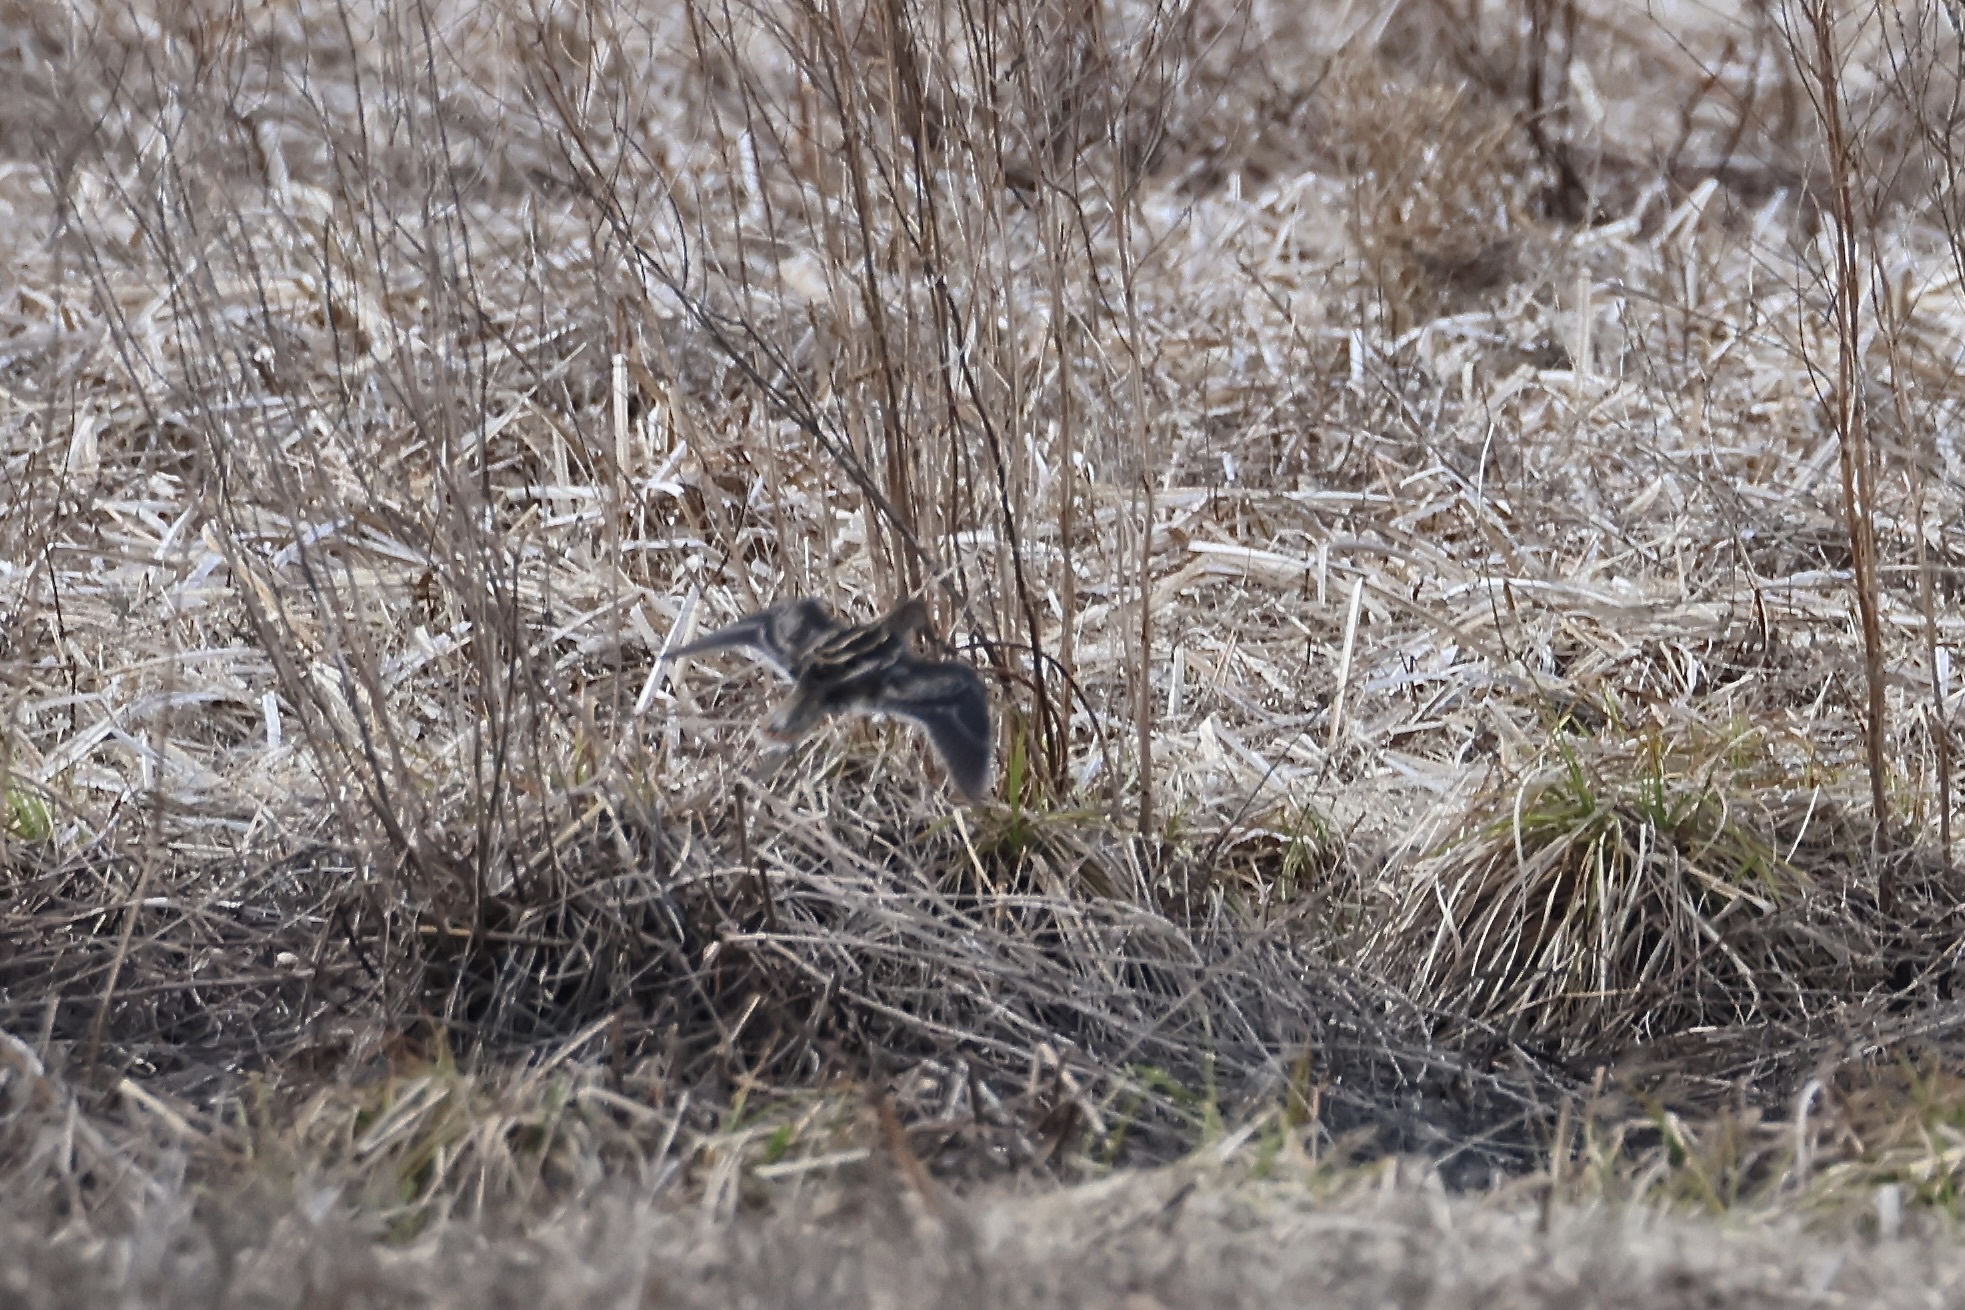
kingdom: Animalia
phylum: Chordata
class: Aves
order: Charadriiformes
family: Scolopacidae
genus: Gallinago
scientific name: Gallinago delicata
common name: Wilson's snipe
